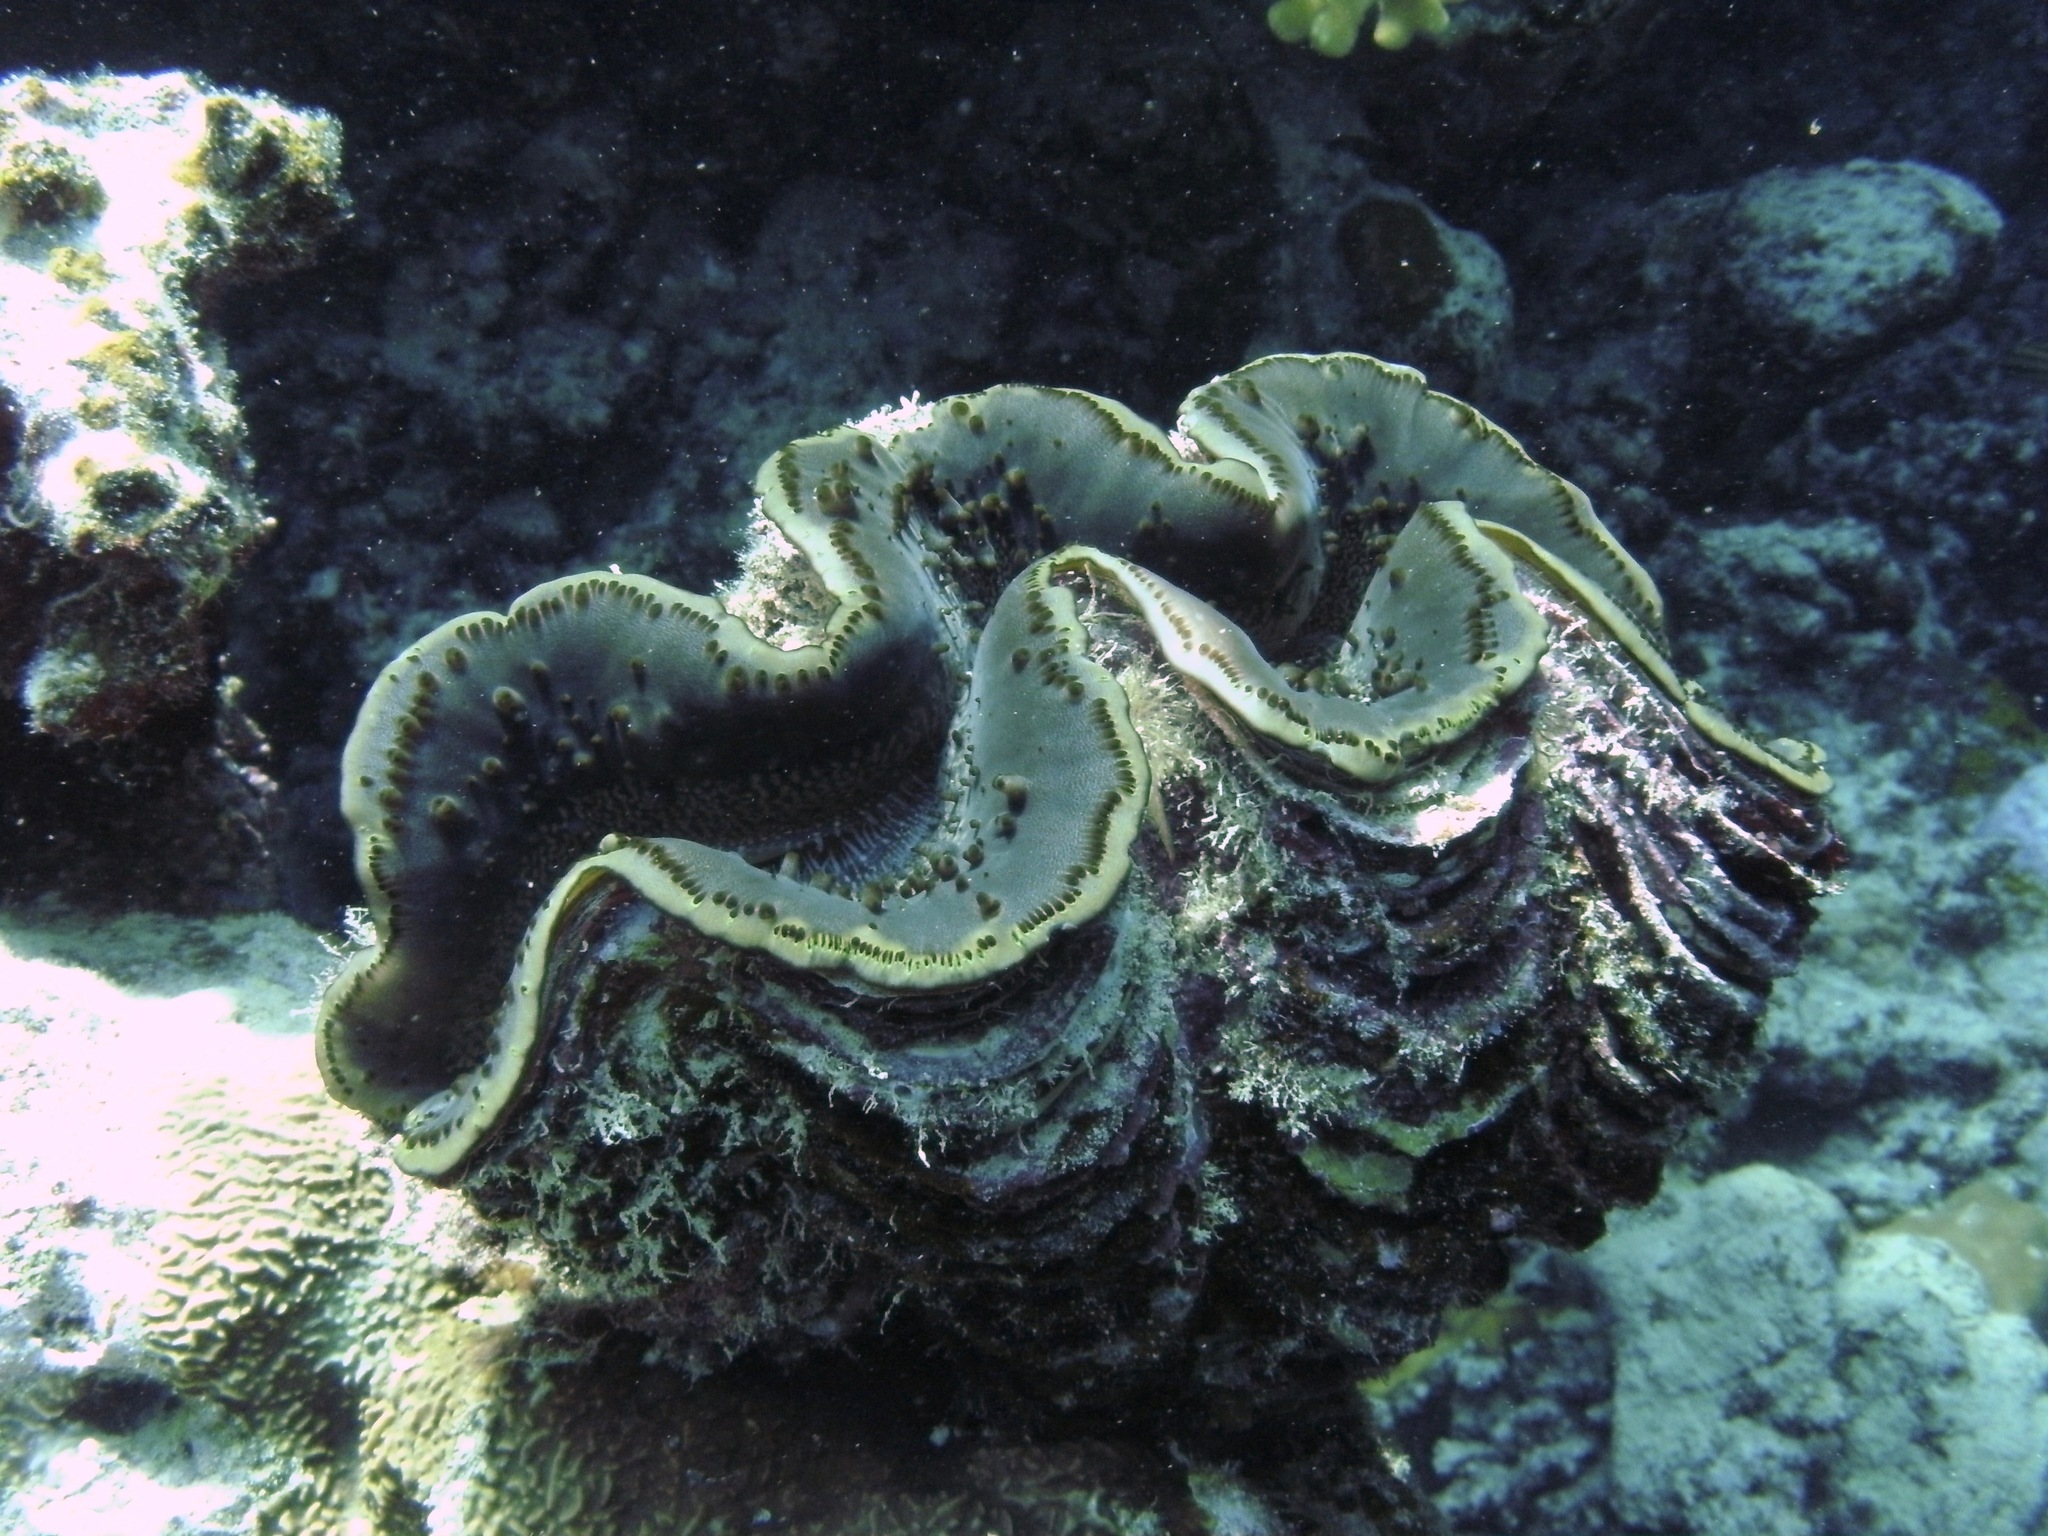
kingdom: Animalia
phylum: Mollusca
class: Bivalvia
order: Cardiida
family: Cardiidae
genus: Tridacna
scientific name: Tridacna maxima
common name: Small giant clam
